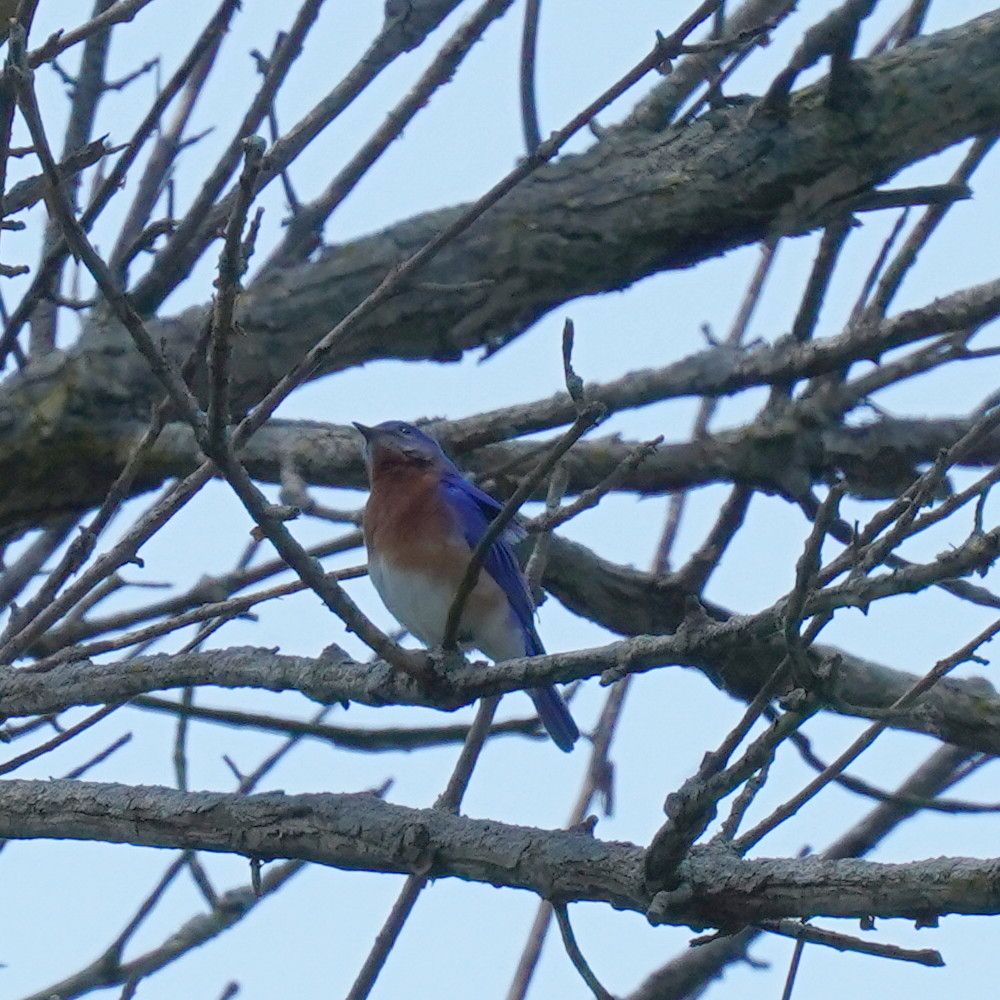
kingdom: Animalia
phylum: Chordata
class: Aves
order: Passeriformes
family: Turdidae
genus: Sialia
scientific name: Sialia sialis
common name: Eastern bluebird
